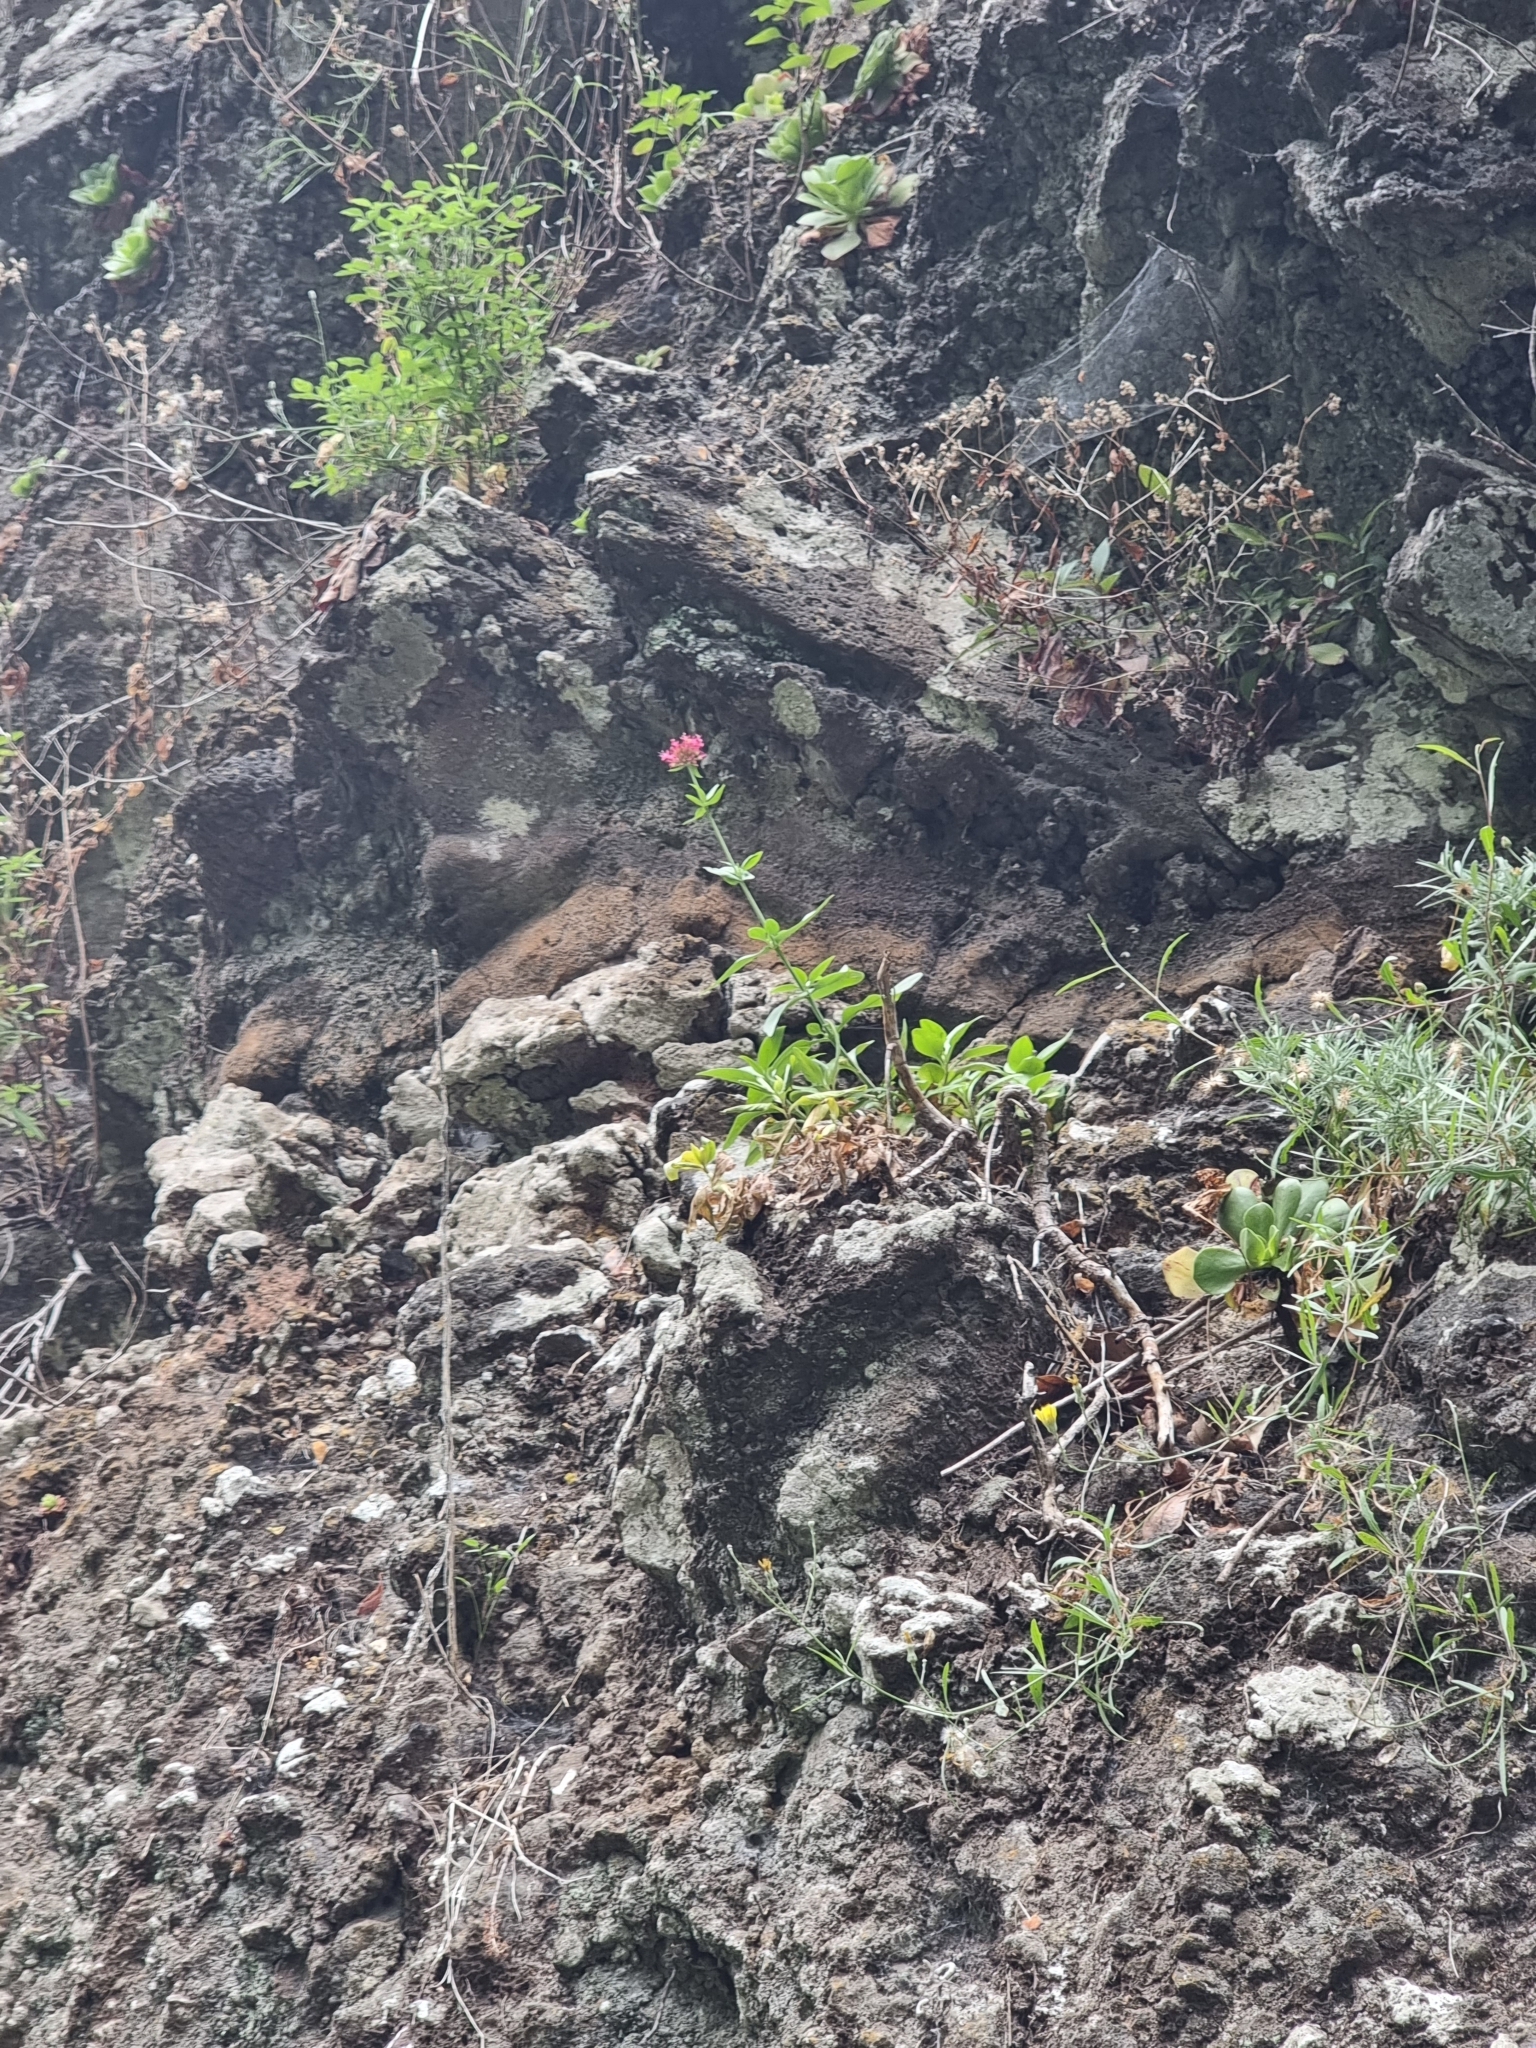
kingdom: Plantae
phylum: Tracheophyta
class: Magnoliopsida
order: Dipsacales
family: Caprifoliaceae
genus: Centranthus
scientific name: Centranthus ruber
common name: Red valerian
